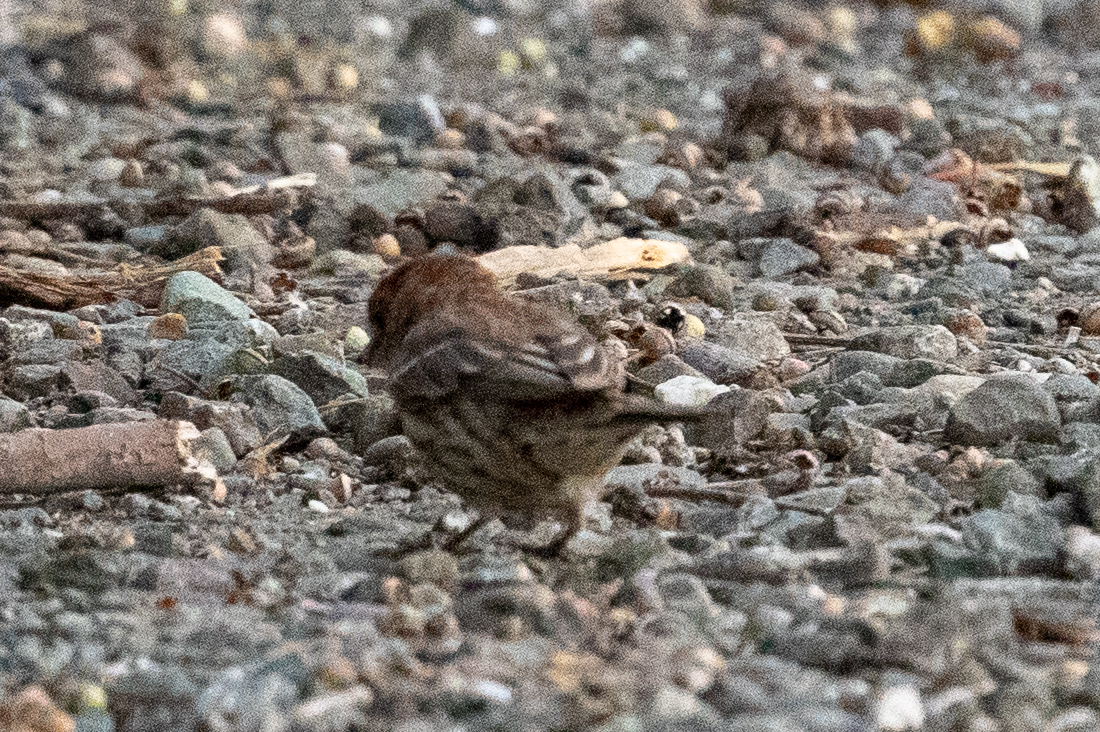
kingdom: Animalia
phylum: Chordata
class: Aves
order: Passeriformes
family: Fringillidae
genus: Haemorhous
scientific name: Haemorhous mexicanus
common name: House finch
